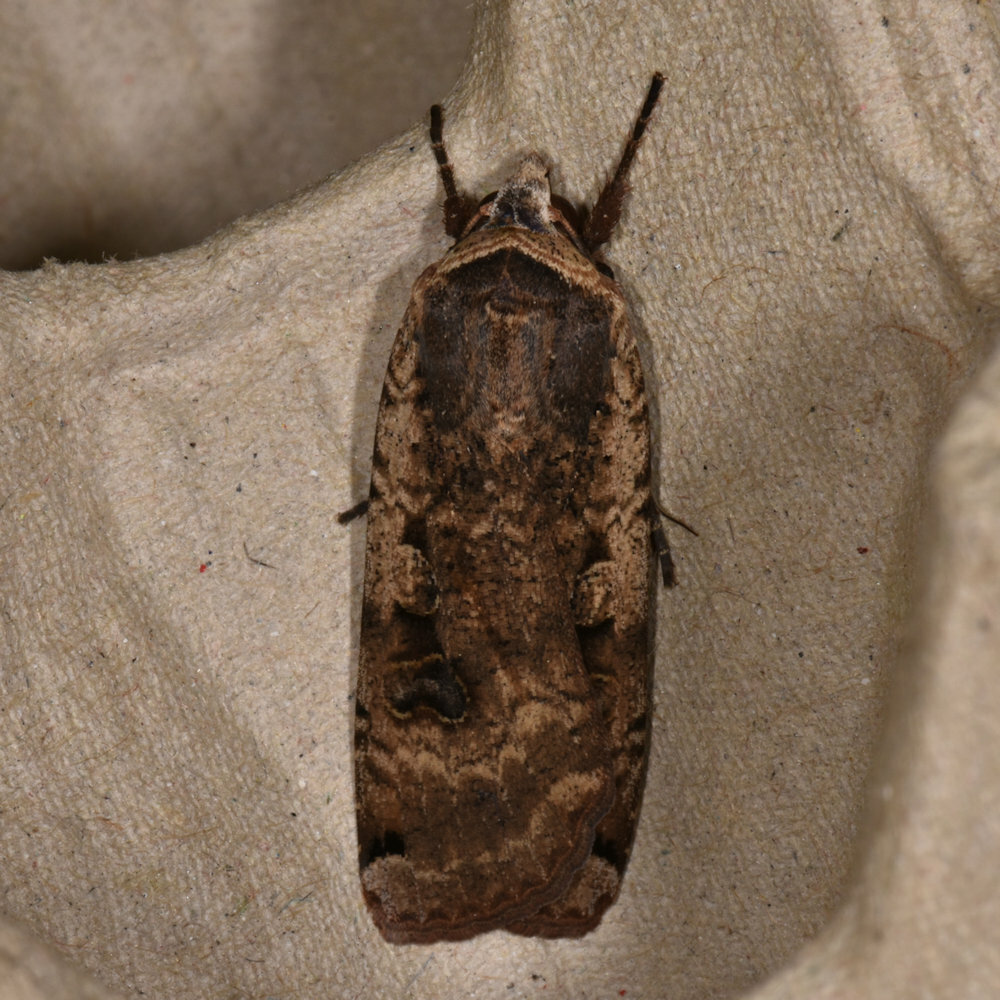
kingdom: Animalia
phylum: Arthropoda
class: Insecta
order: Lepidoptera
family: Noctuidae
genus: Noctua
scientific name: Noctua pronuba
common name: Large yellow underwing
